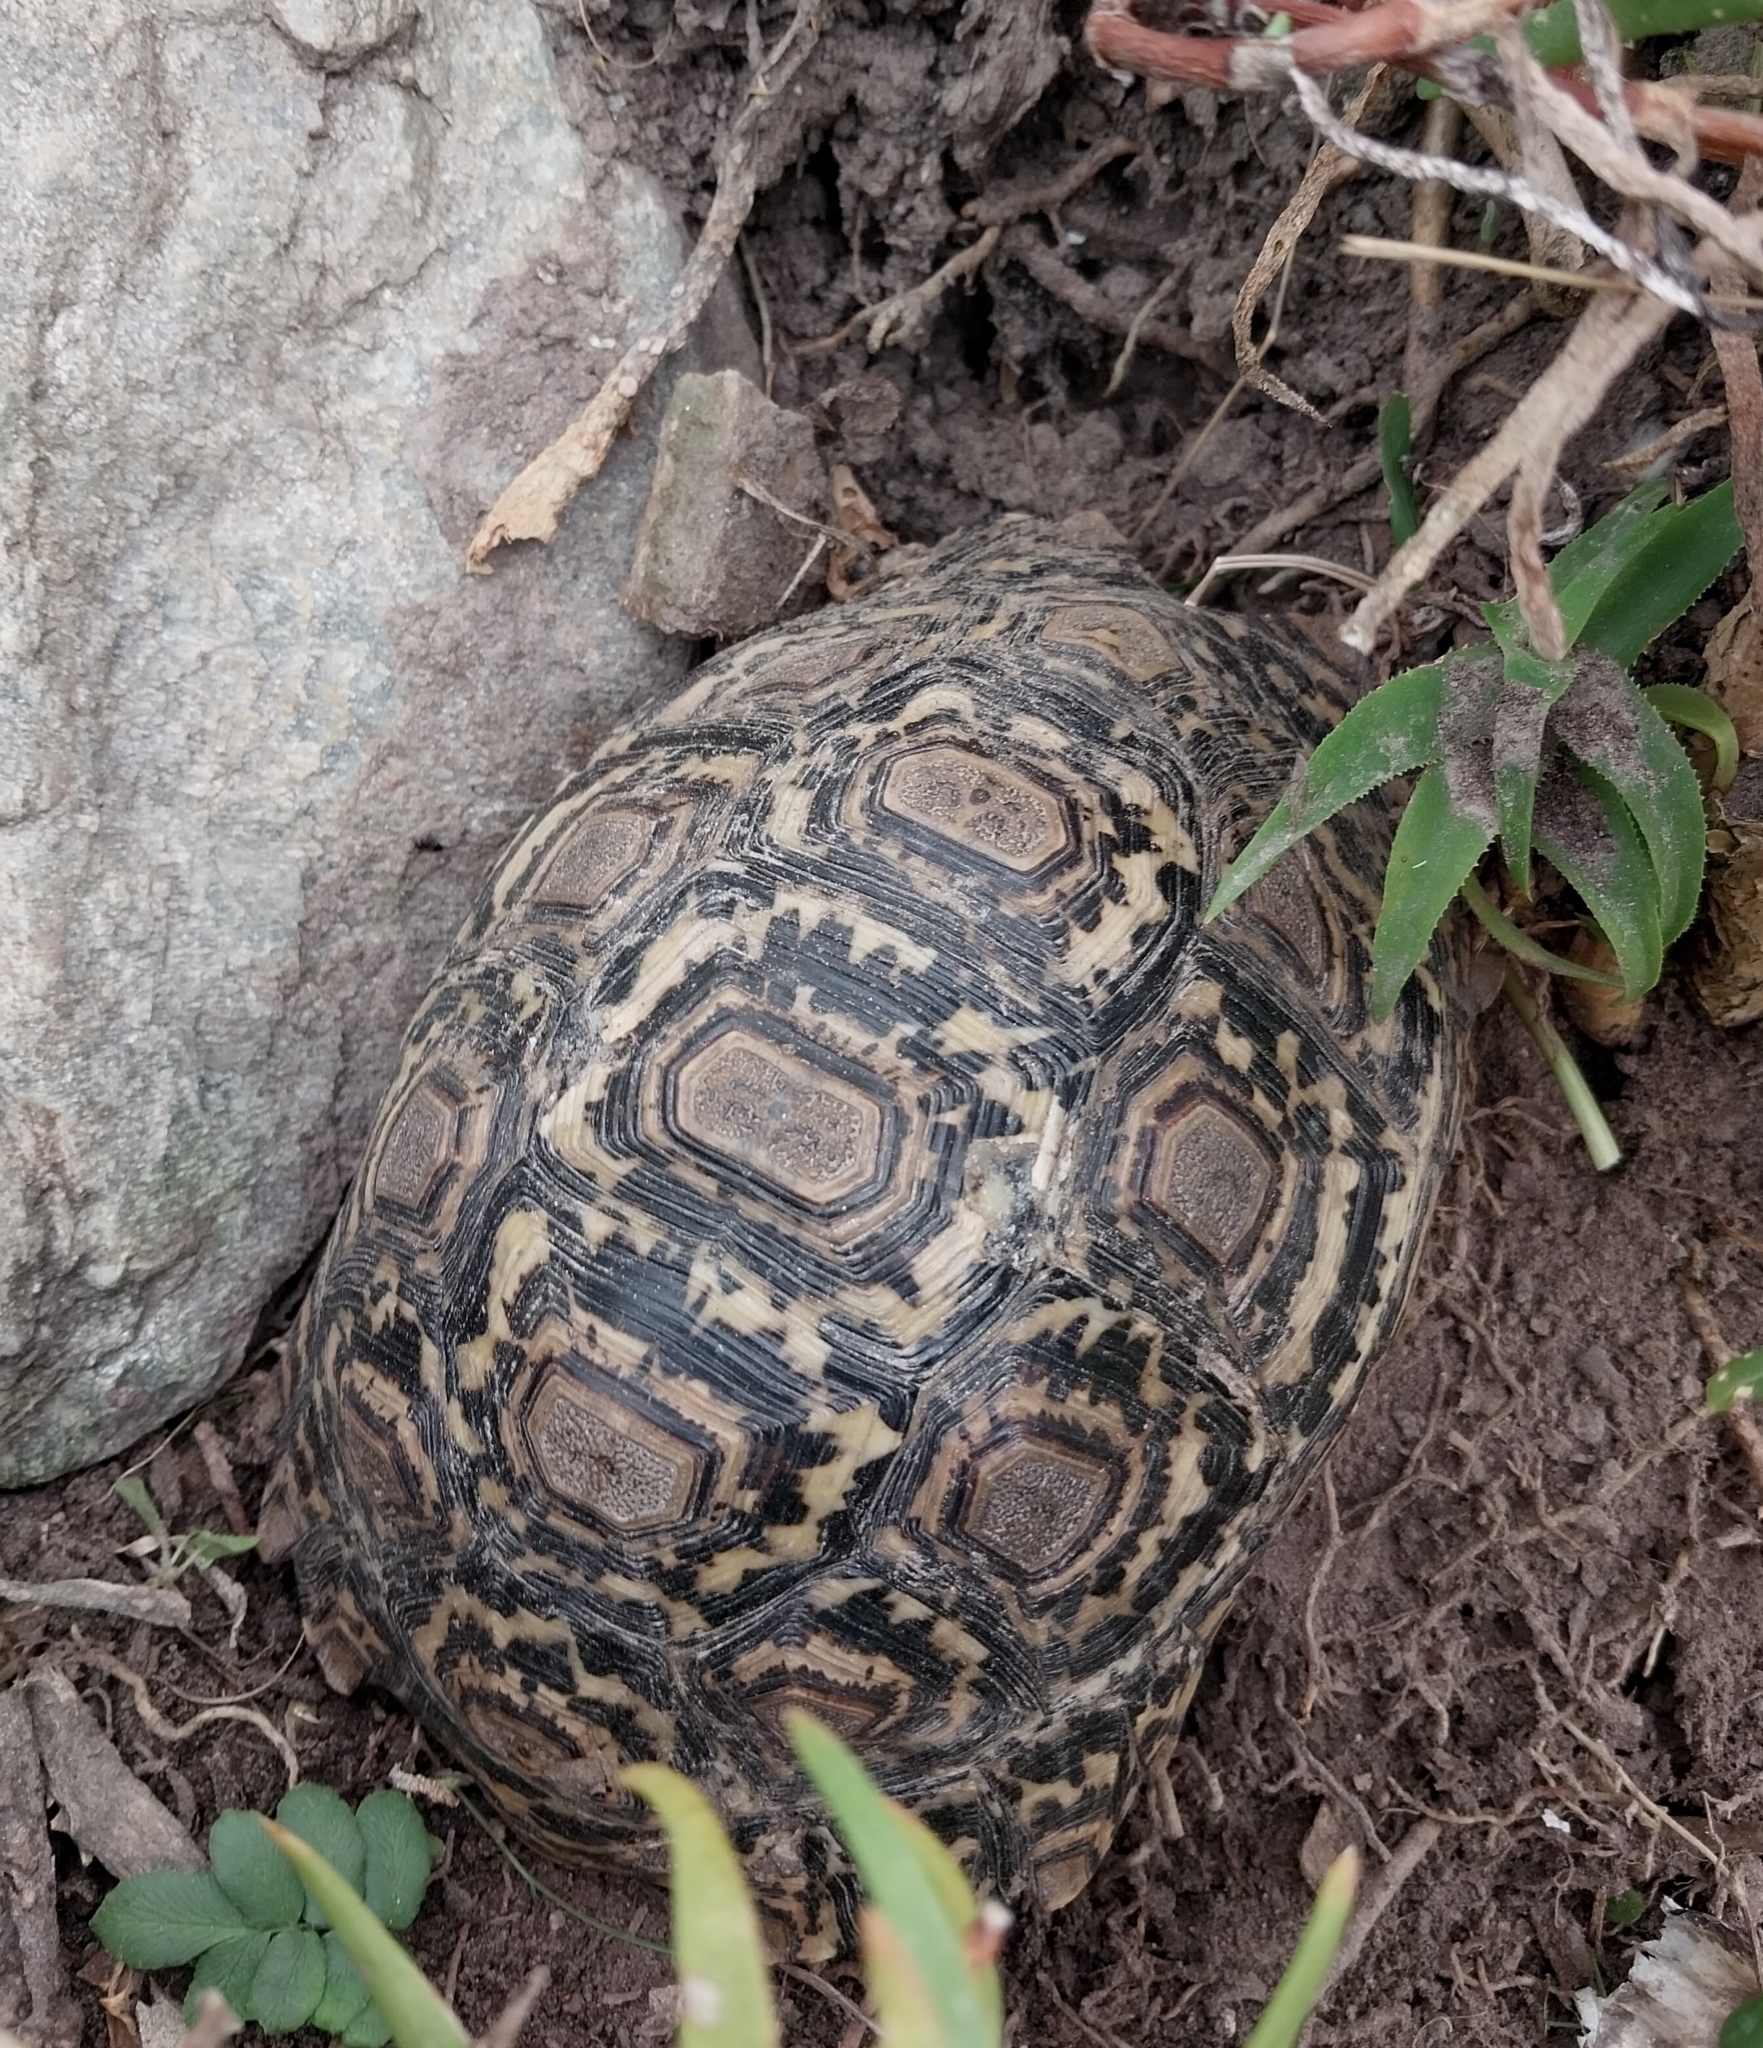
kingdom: Animalia
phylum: Chordata
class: Testudines
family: Testudinidae
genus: Stigmochelys
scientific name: Stigmochelys pardalis
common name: Leopard tortoise
